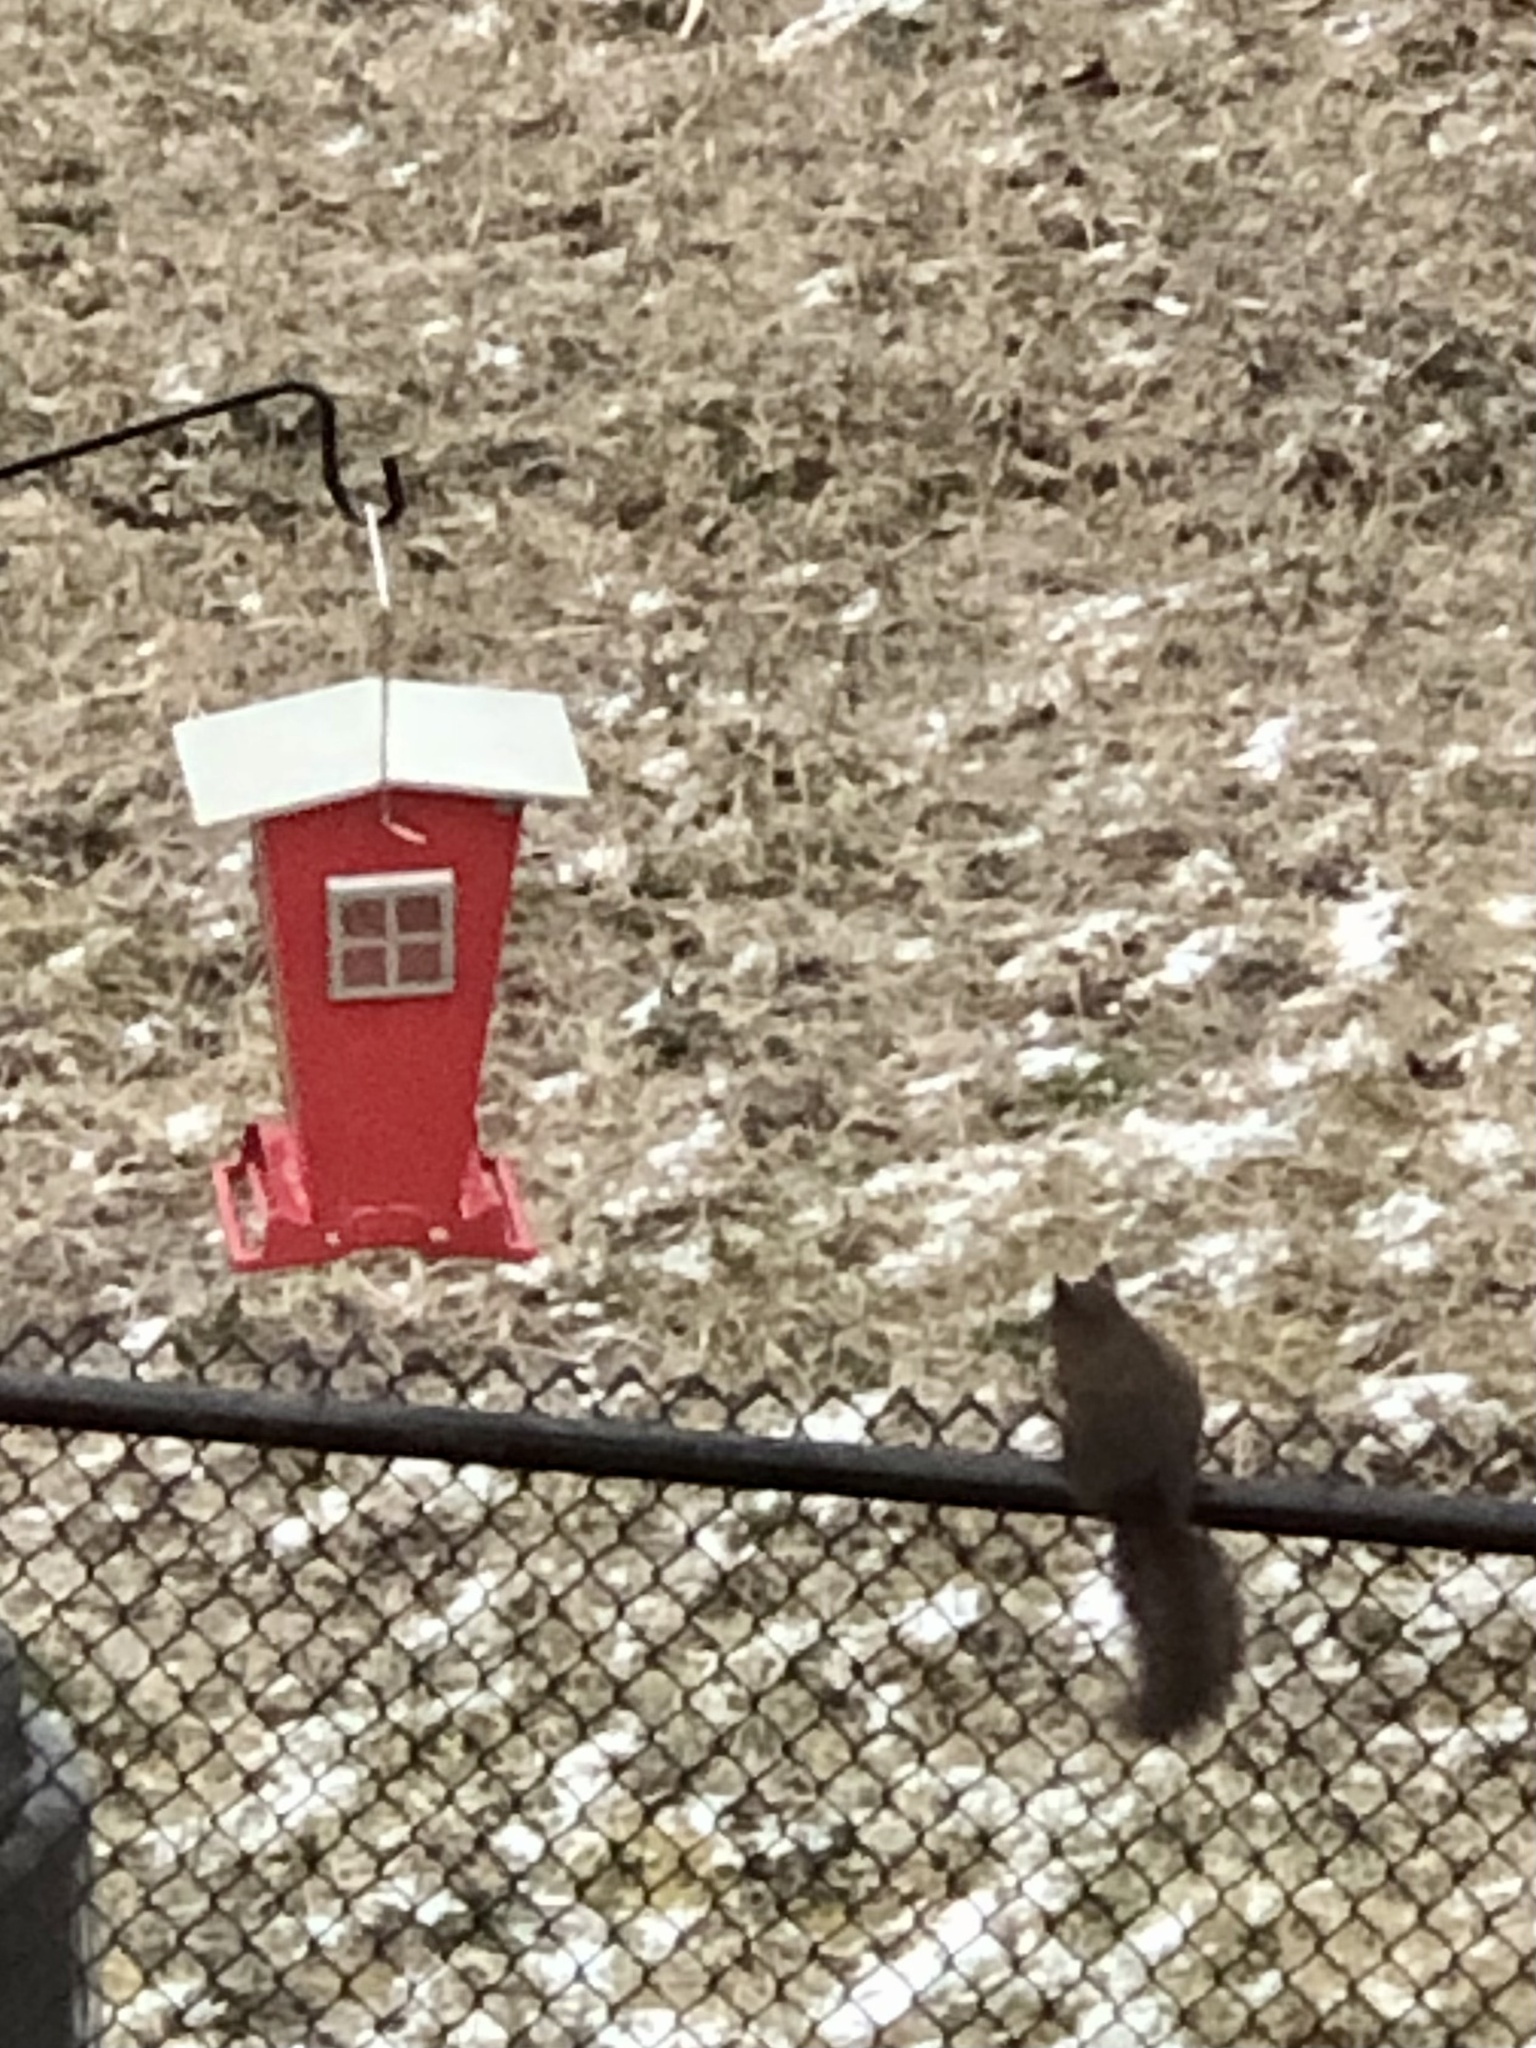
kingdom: Animalia
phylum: Chordata
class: Mammalia
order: Rodentia
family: Sciuridae
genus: Sciurus
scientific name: Sciurus carolinensis
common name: Eastern gray squirrel
